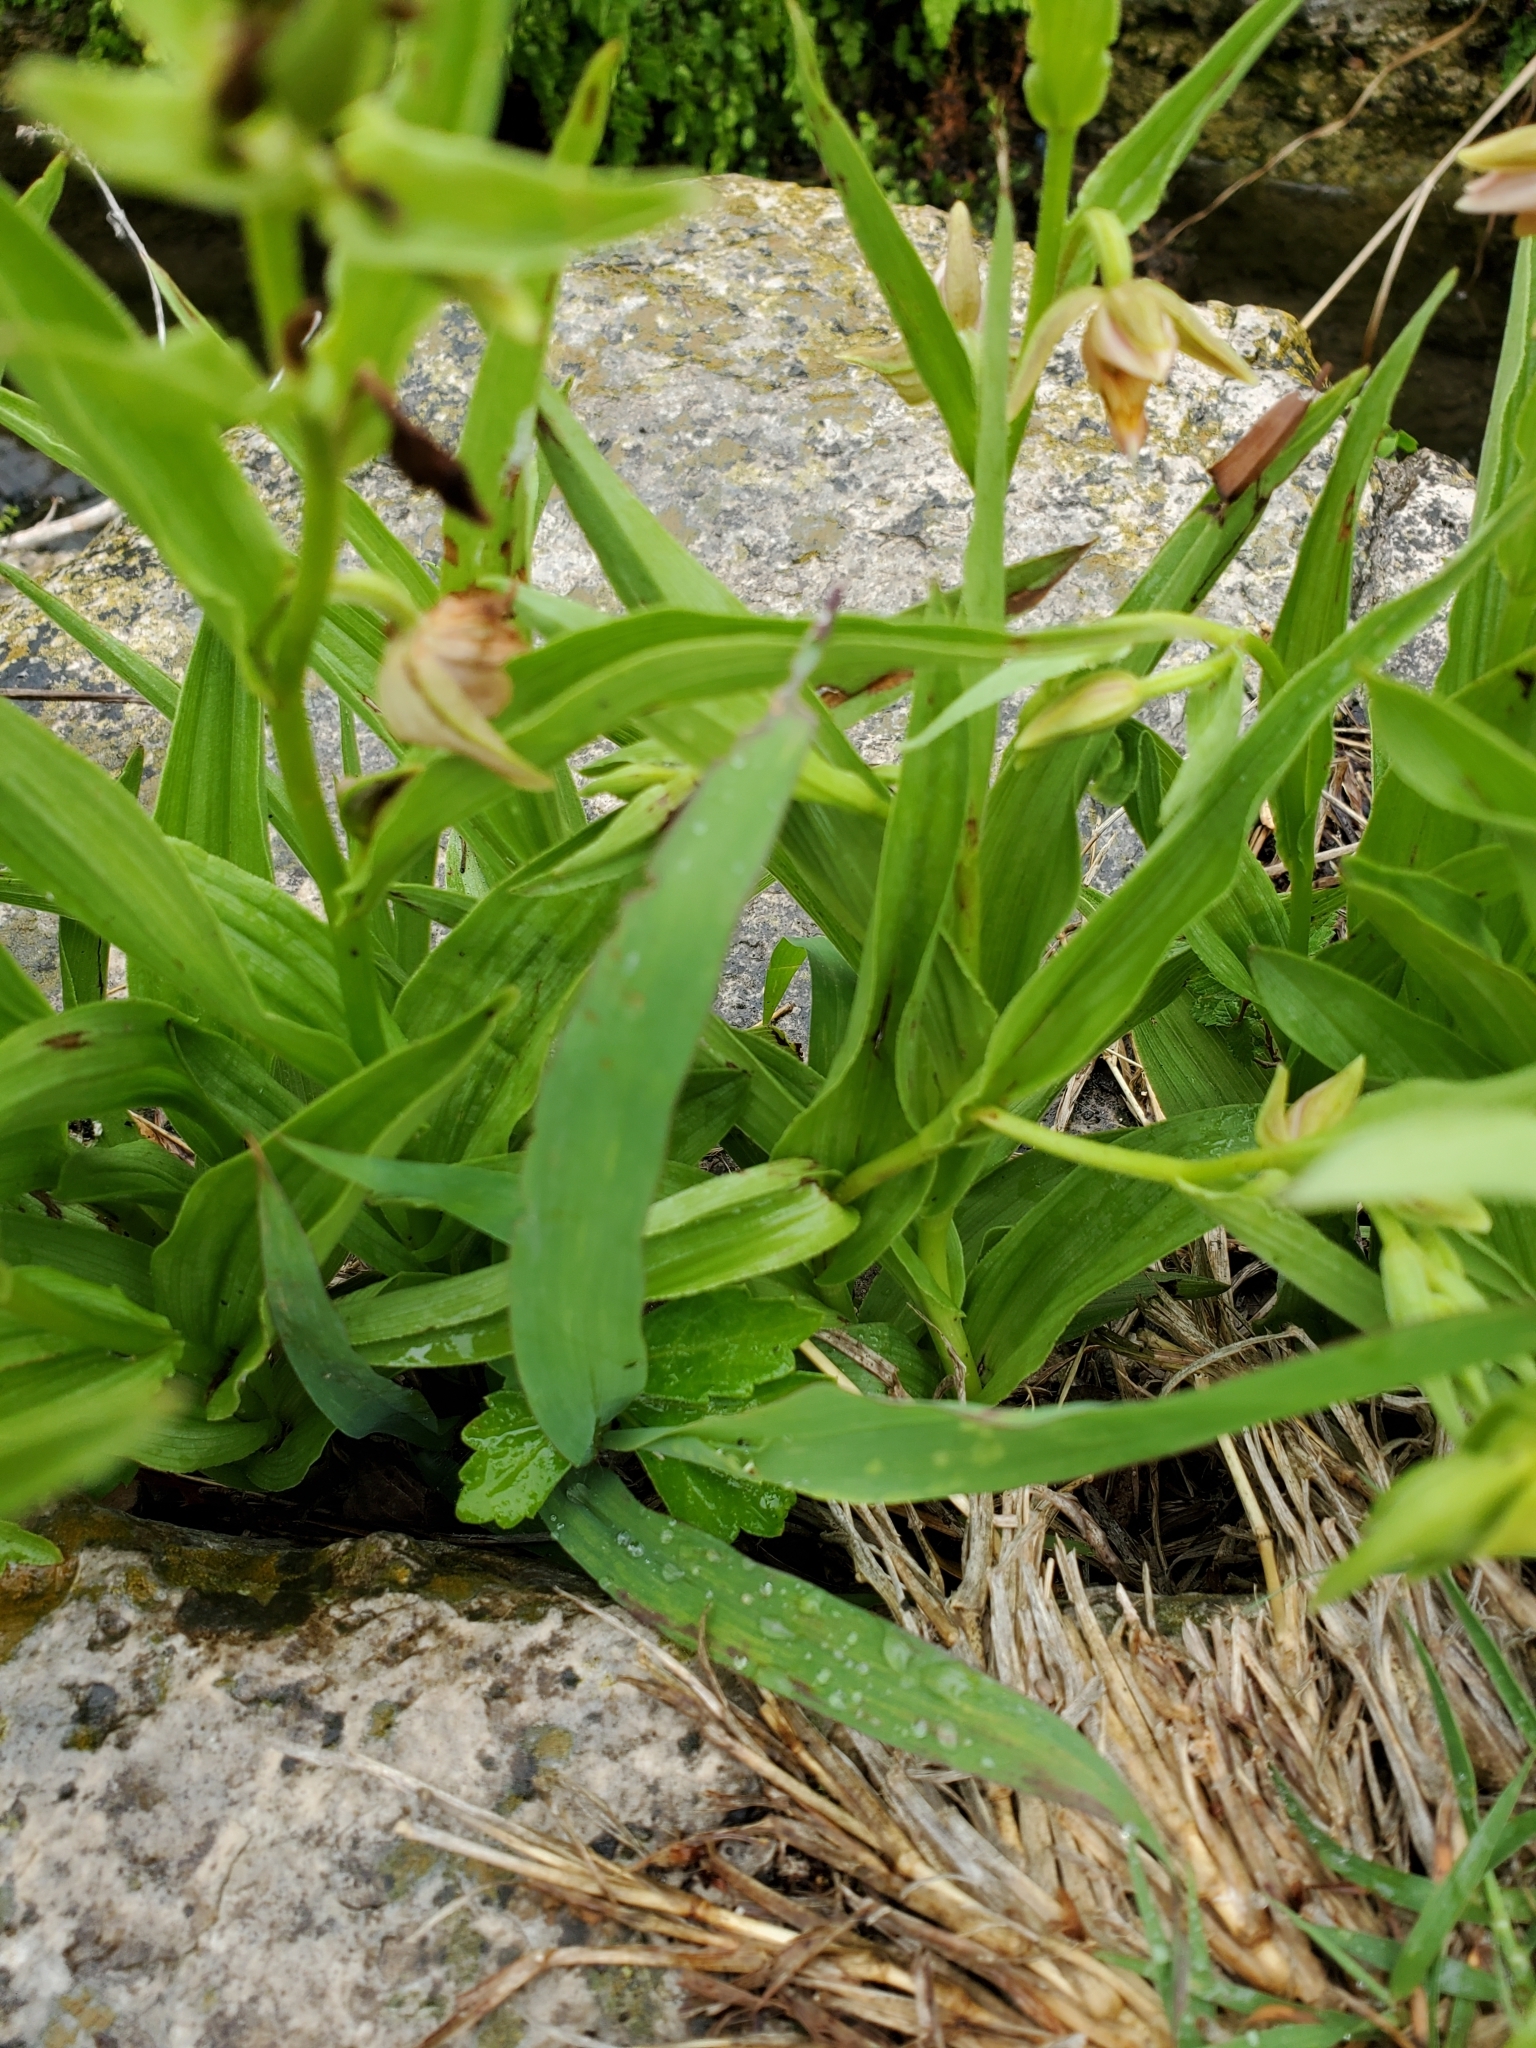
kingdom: Plantae
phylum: Tracheophyta
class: Liliopsida
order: Asparagales
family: Orchidaceae
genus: Epipactis
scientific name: Epipactis gigantea
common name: Chatterbox
